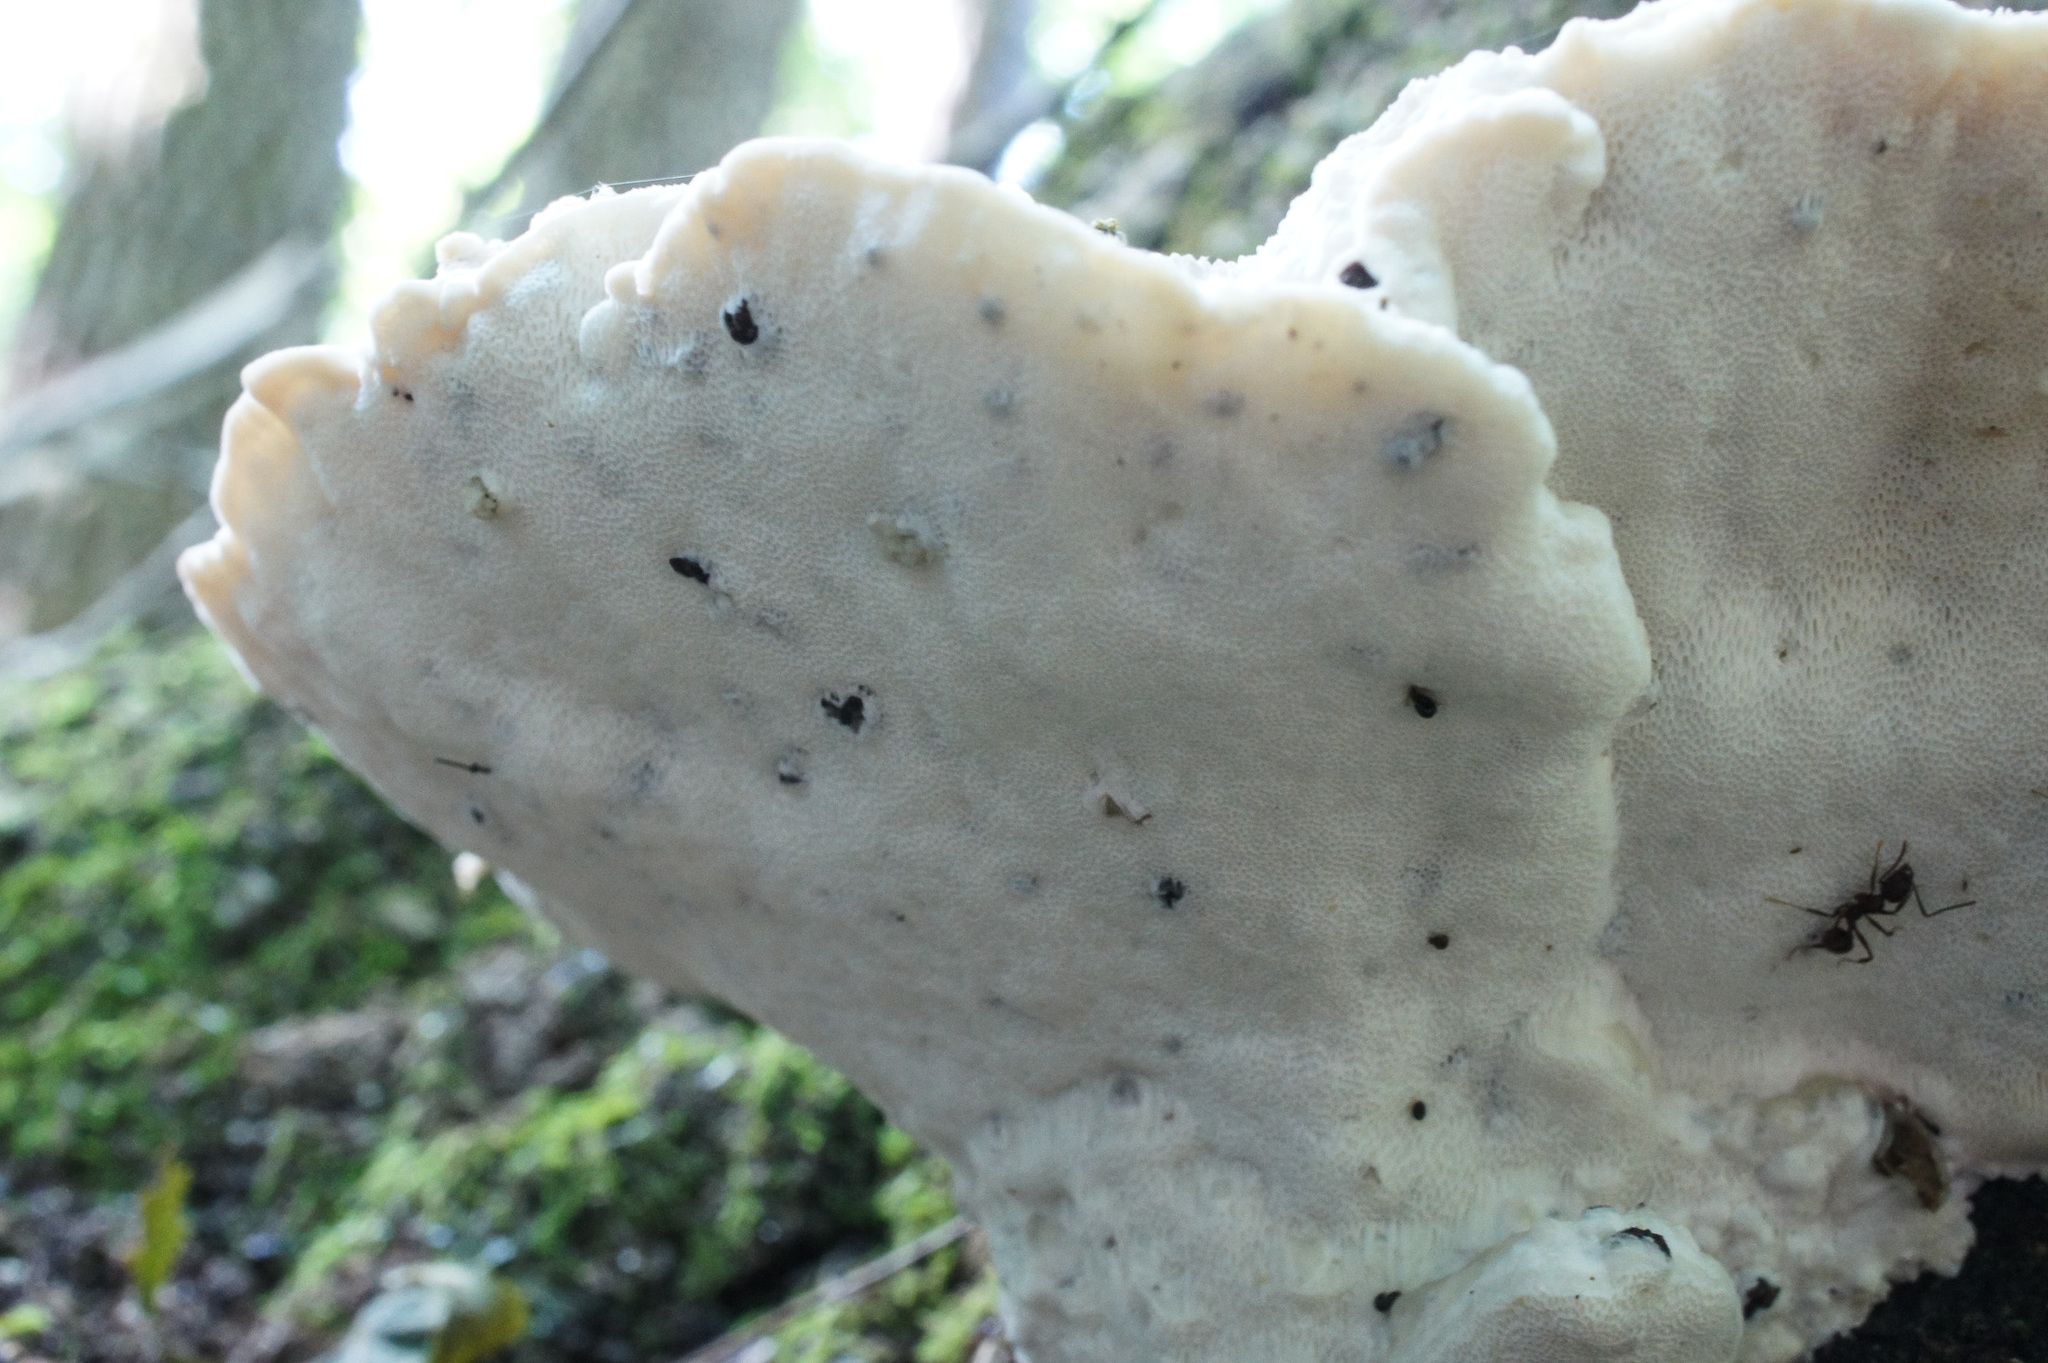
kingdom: Fungi
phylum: Basidiomycota
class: Agaricomycetes
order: Polyporales
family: Fomitopsidaceae
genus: Niveoporofomes
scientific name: Niveoporofomes spraguei
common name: Green cheese polypore
